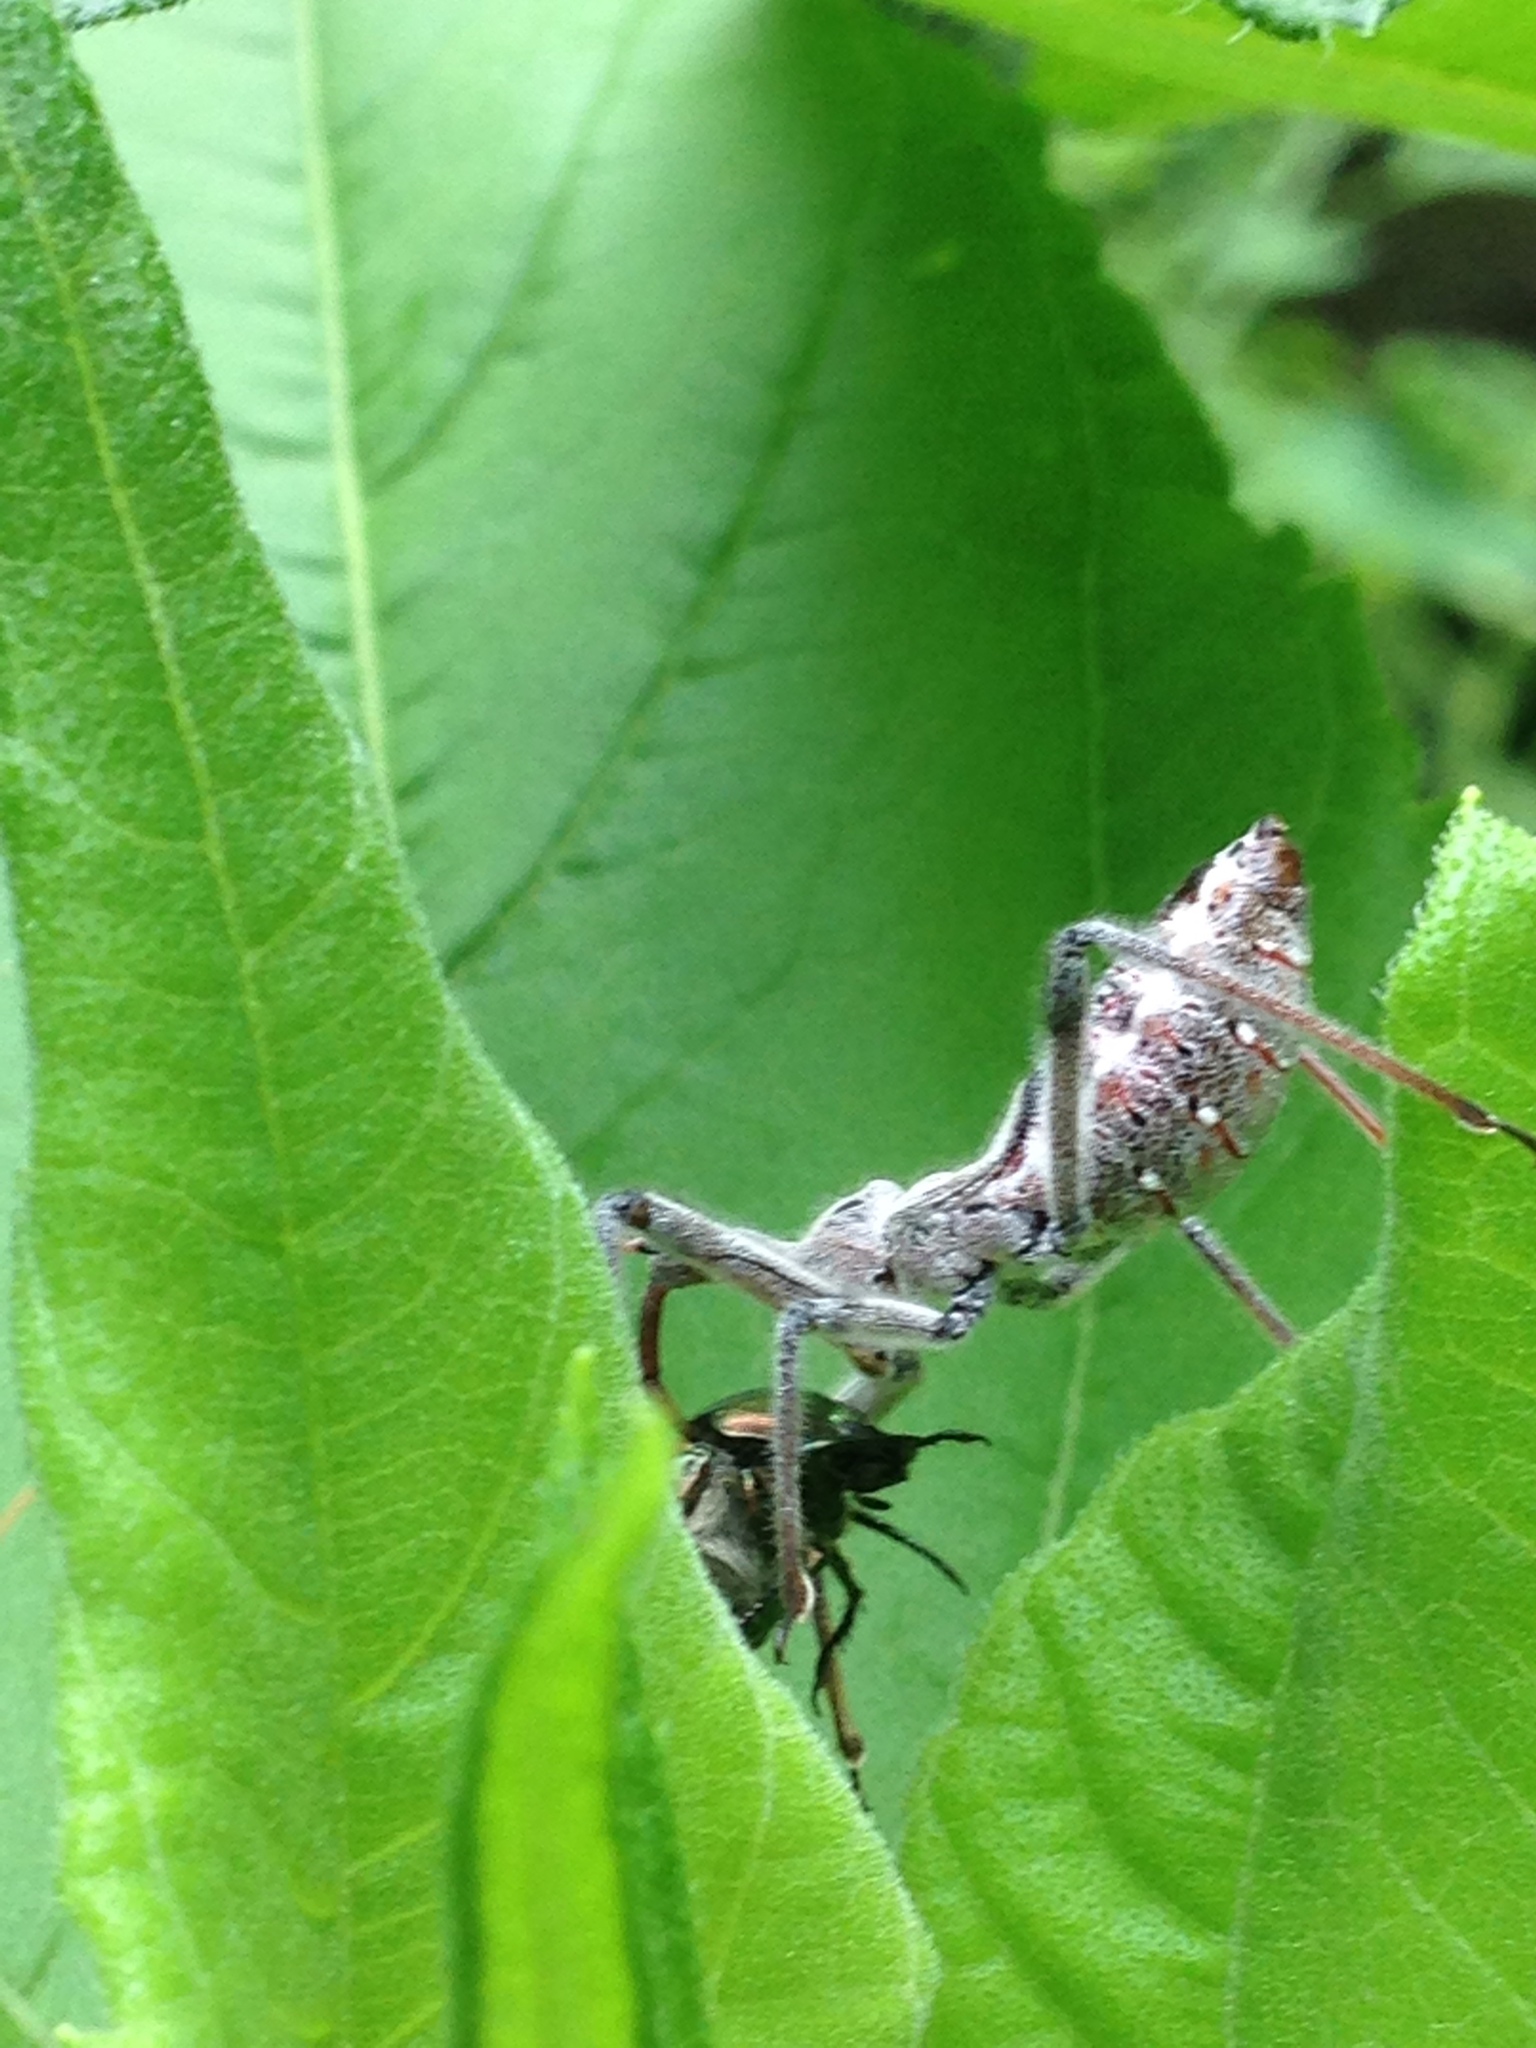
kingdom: Animalia
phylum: Arthropoda
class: Insecta
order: Hemiptera
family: Reduviidae
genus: Arilus
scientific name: Arilus cristatus
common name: North american wheel bug
